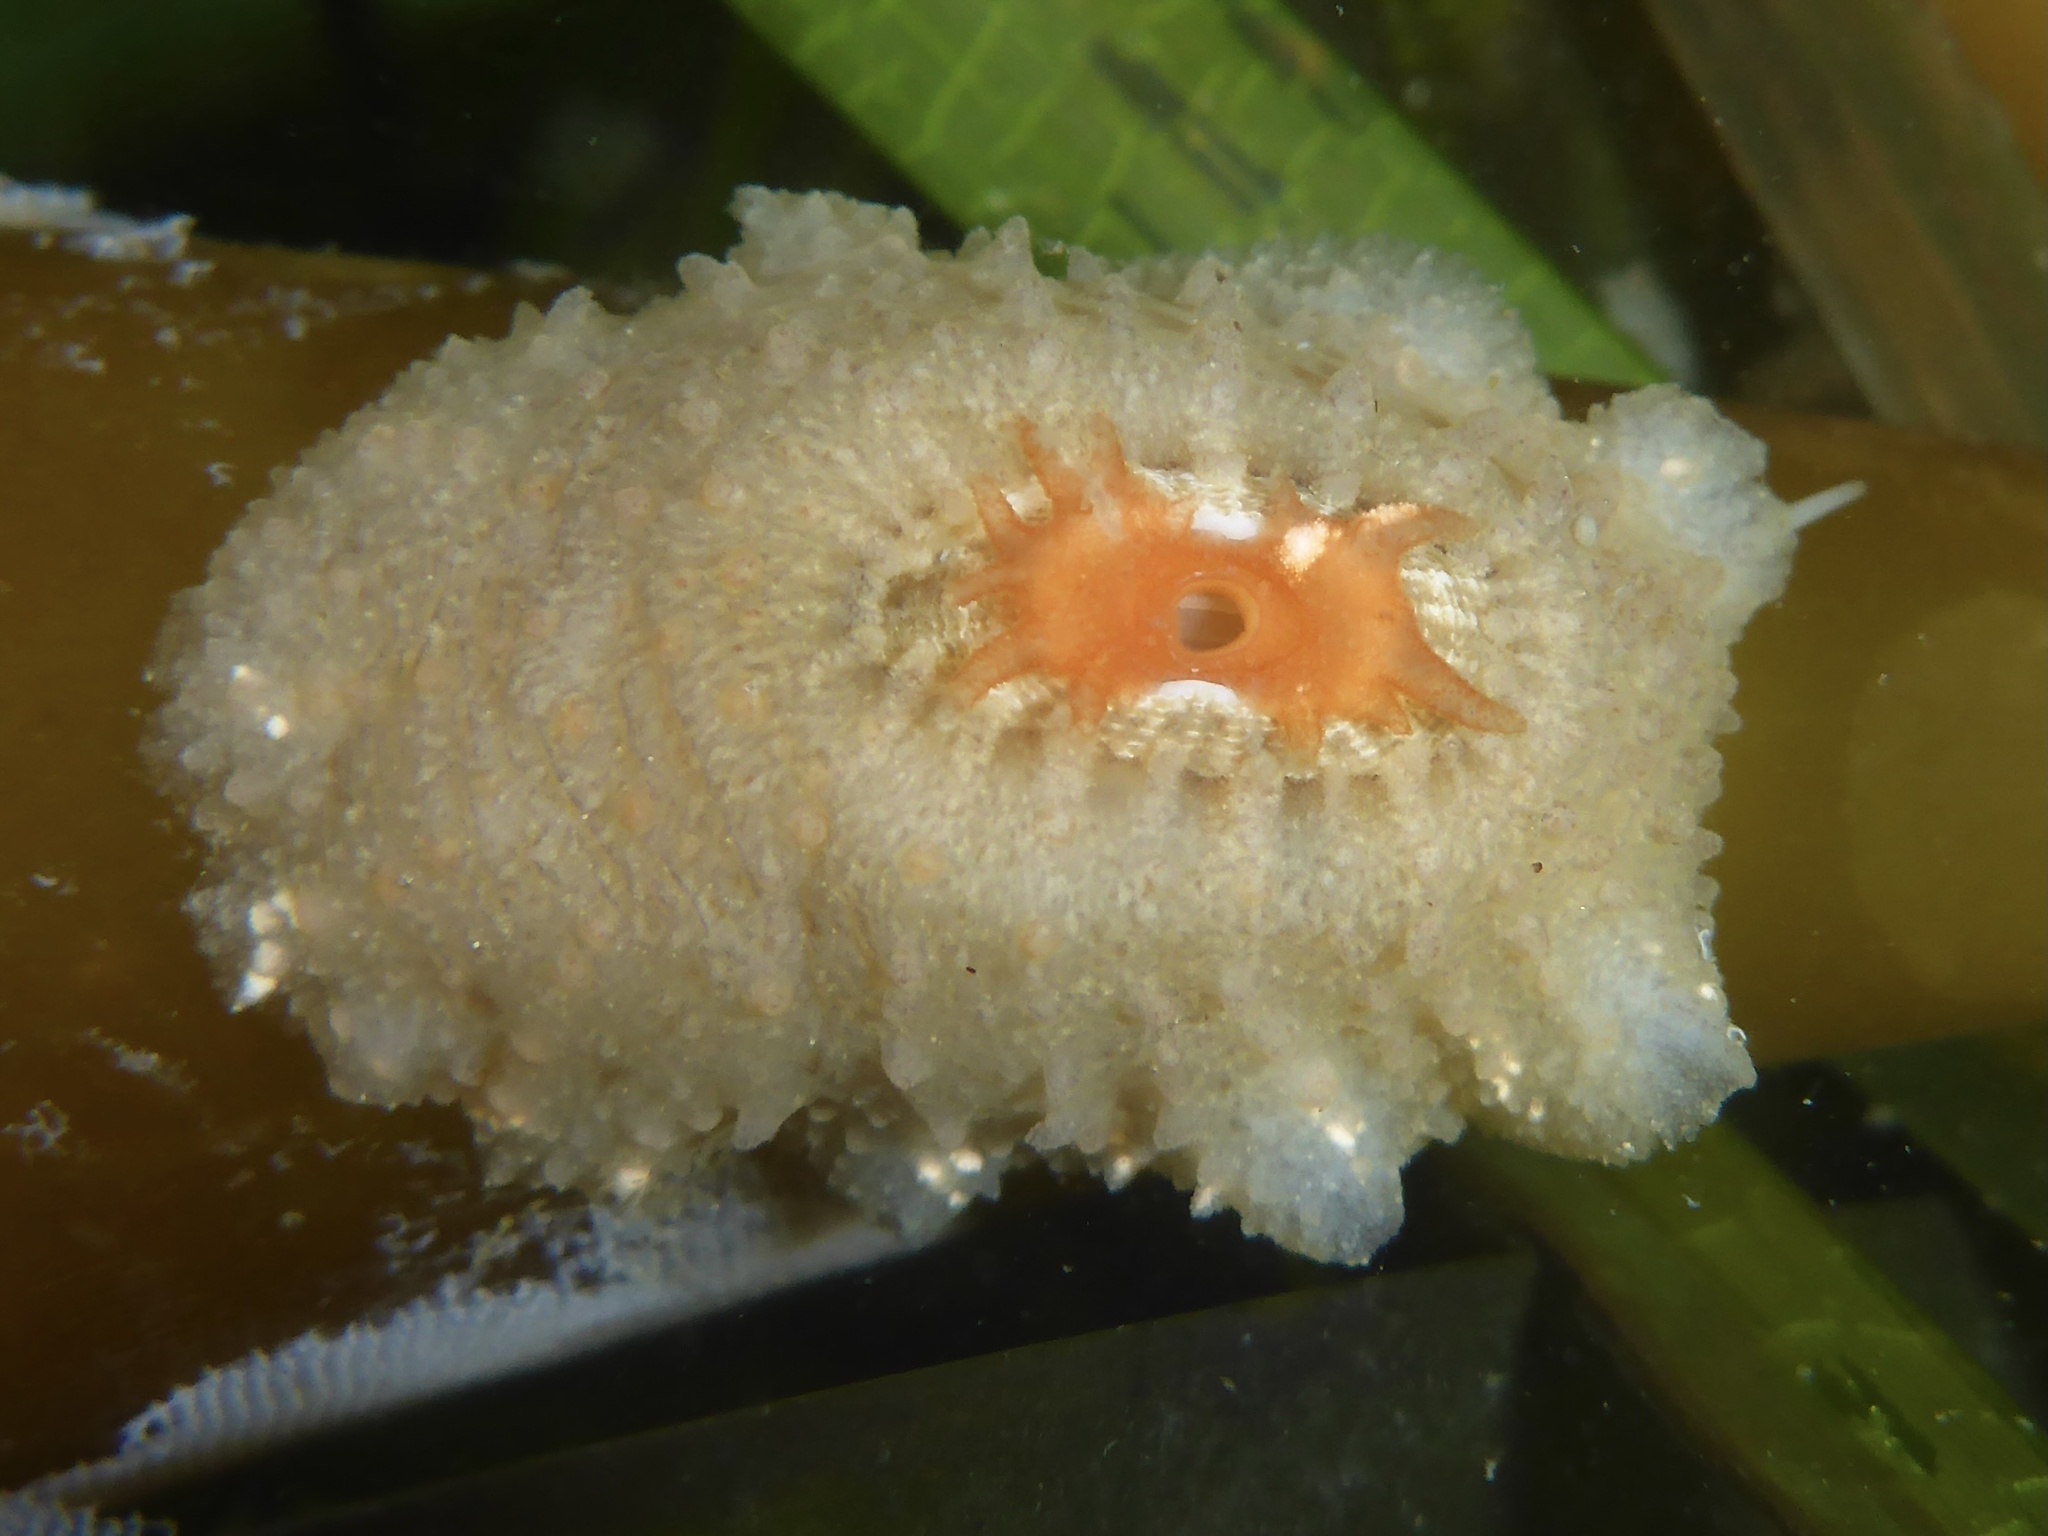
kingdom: Animalia
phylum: Mollusca
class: Gastropoda
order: Lepetellida
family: Fissurellidae
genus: Fissurellidea
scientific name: Fissurellidea bimaculata
